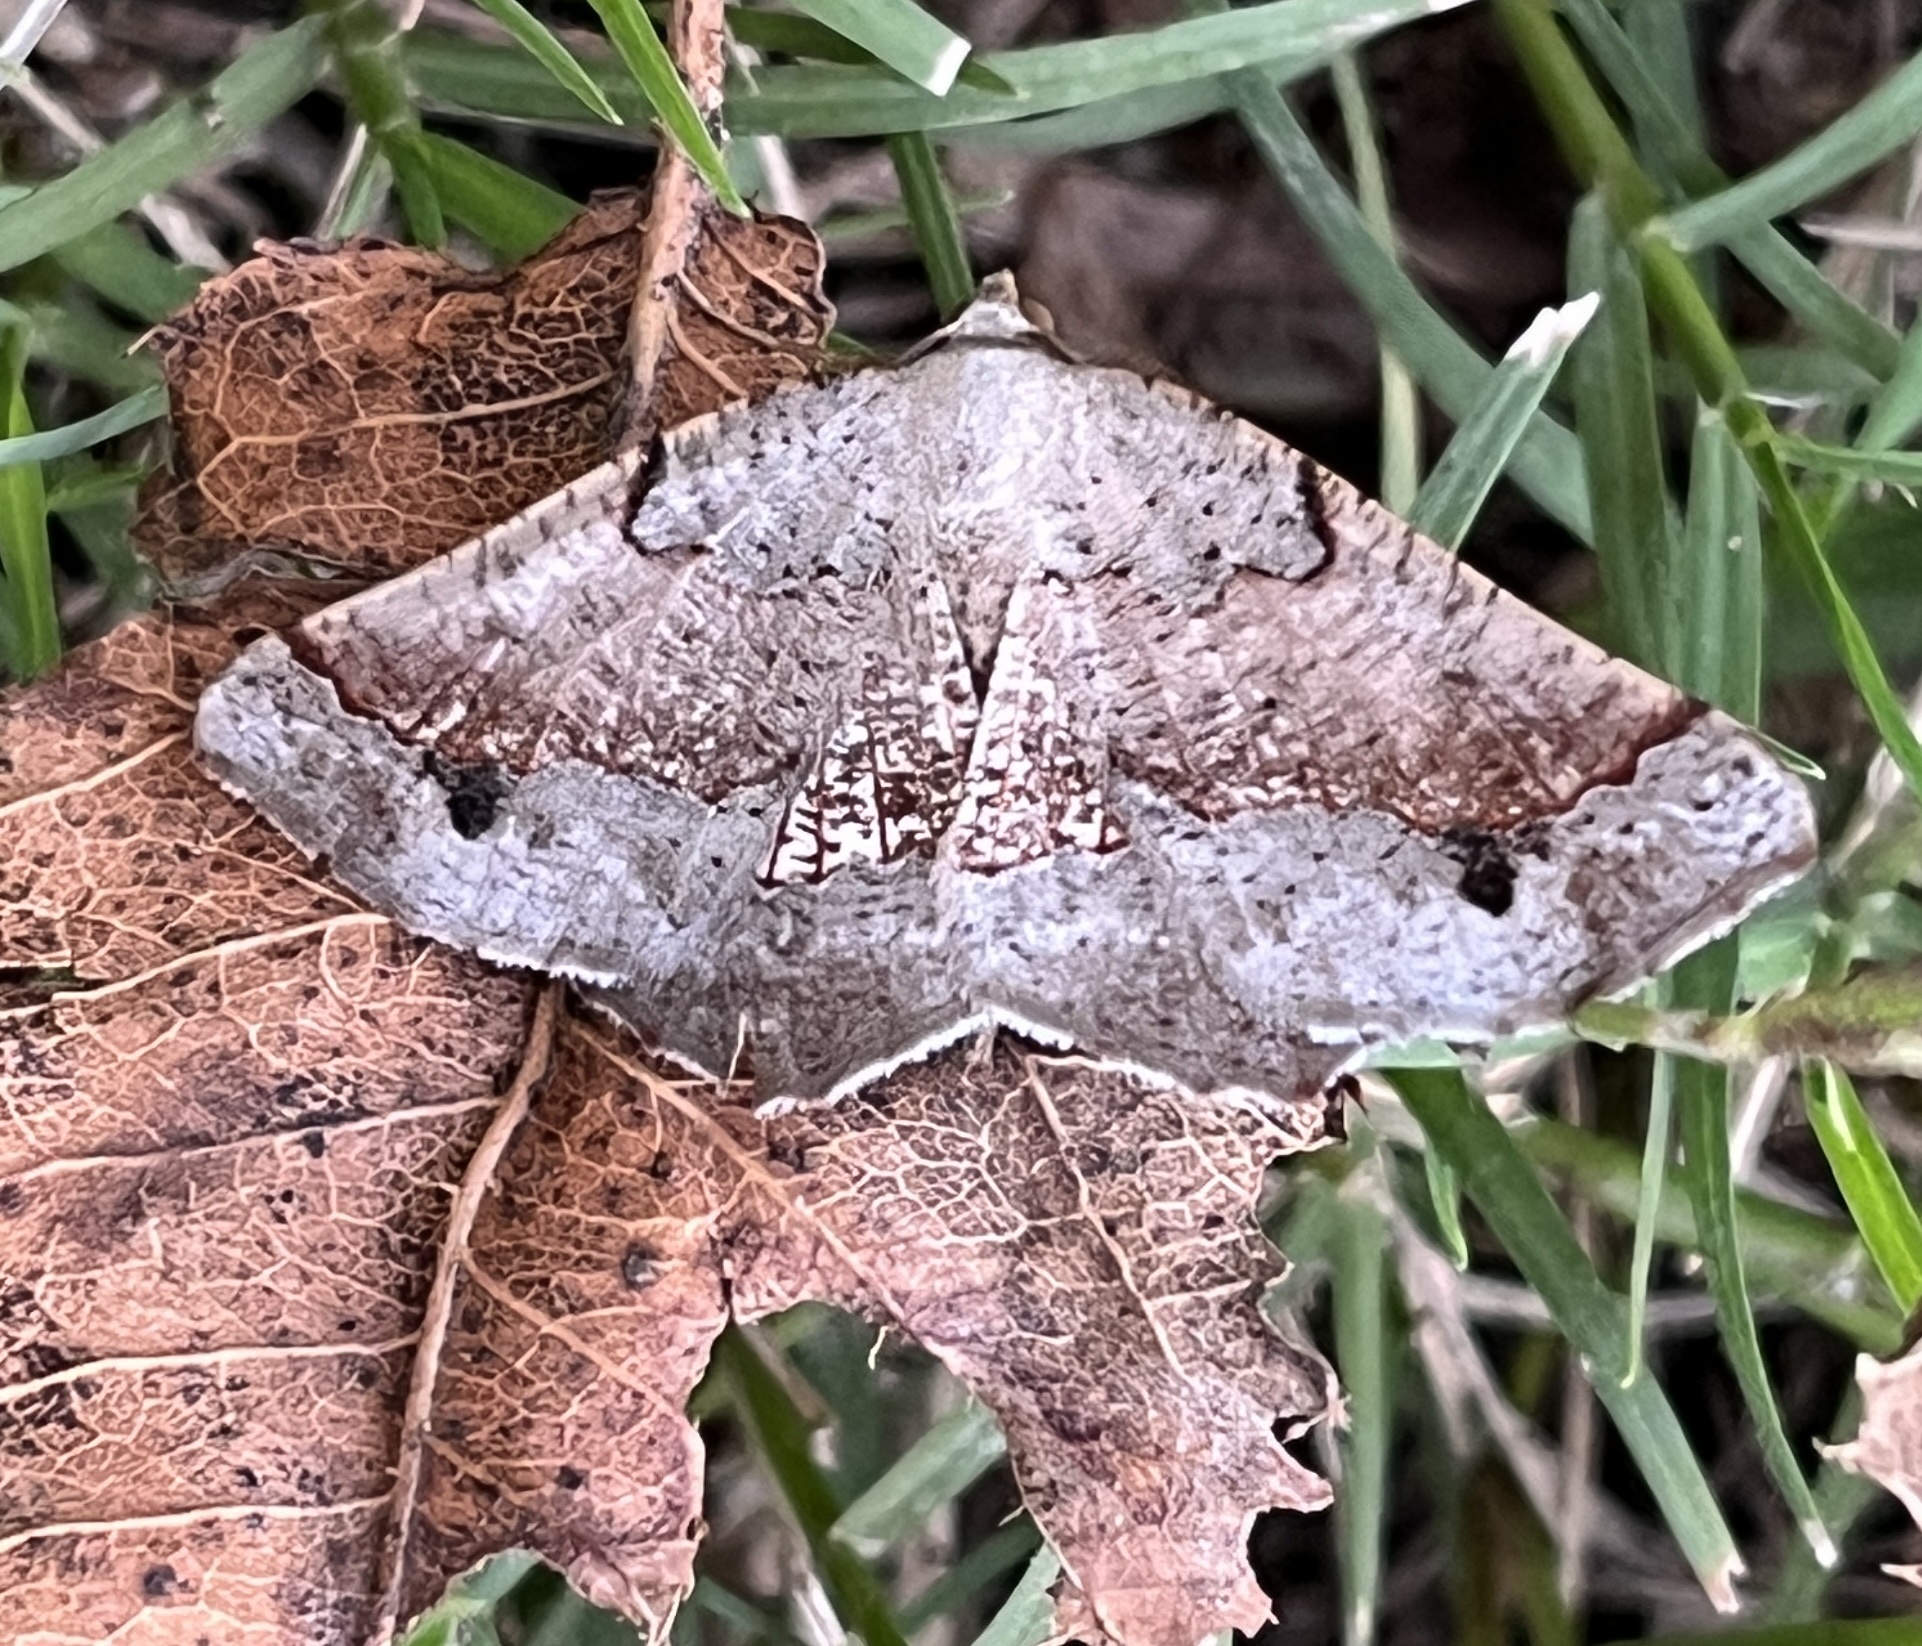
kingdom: Animalia
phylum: Arthropoda
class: Insecta
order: Lepidoptera
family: Geometridae
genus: Drepanogynis
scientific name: Drepanogynis mixtaria
